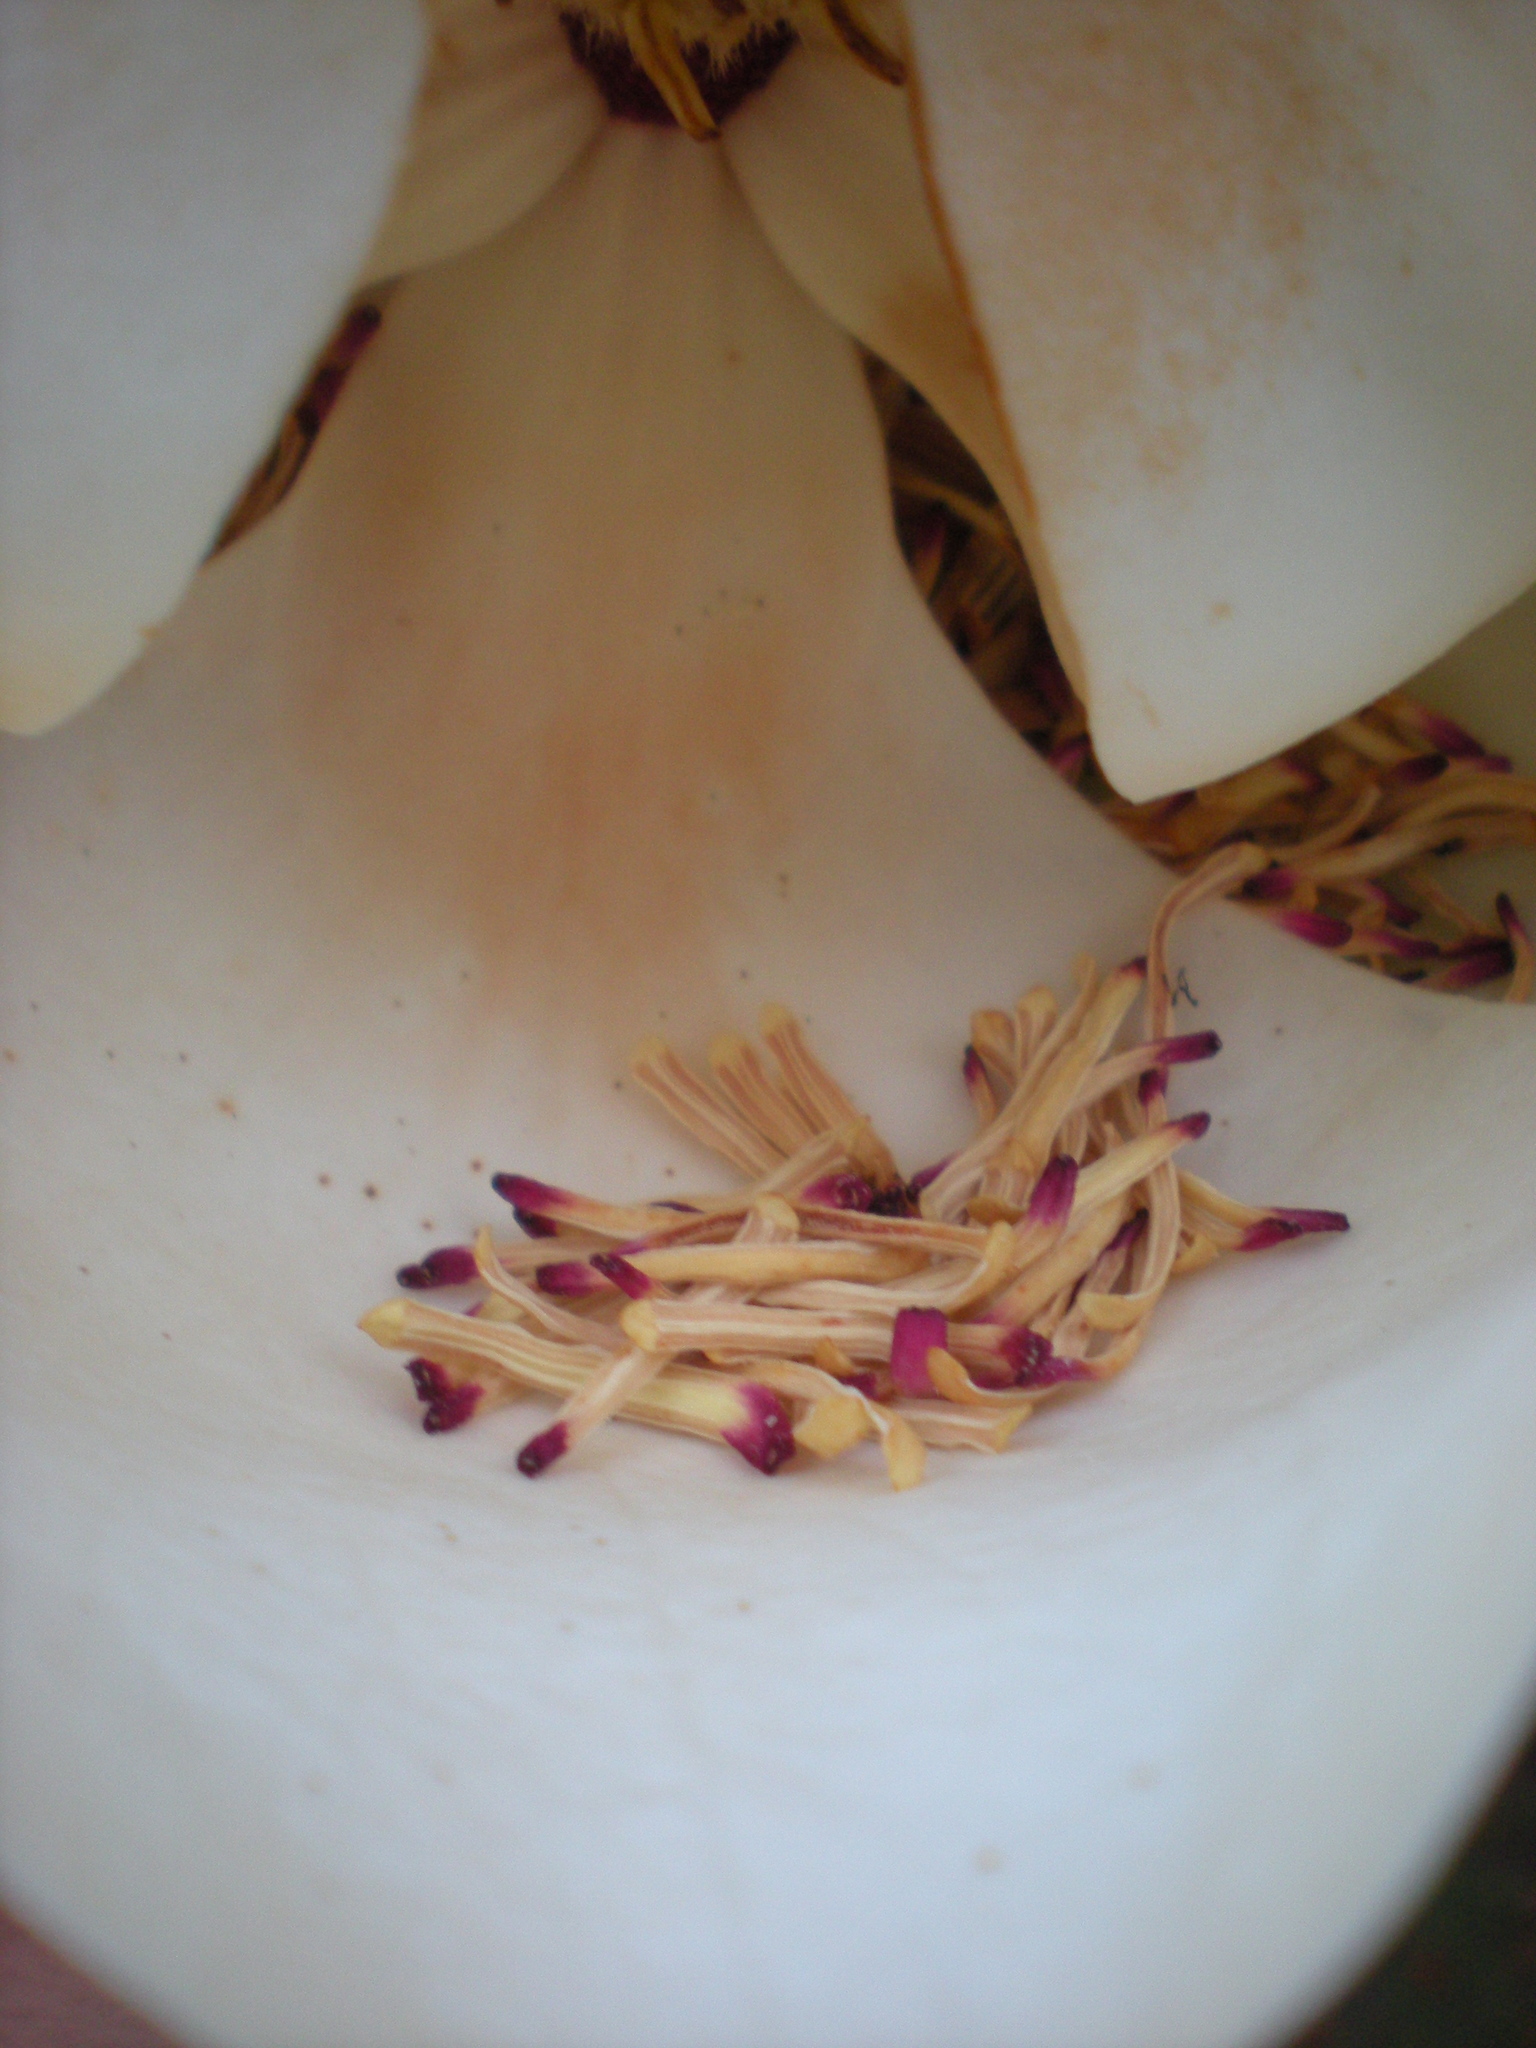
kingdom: Plantae
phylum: Tracheophyta
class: Magnoliopsida
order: Magnoliales
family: Magnoliaceae
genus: Magnolia
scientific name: Magnolia grandiflora
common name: Southern magnolia
